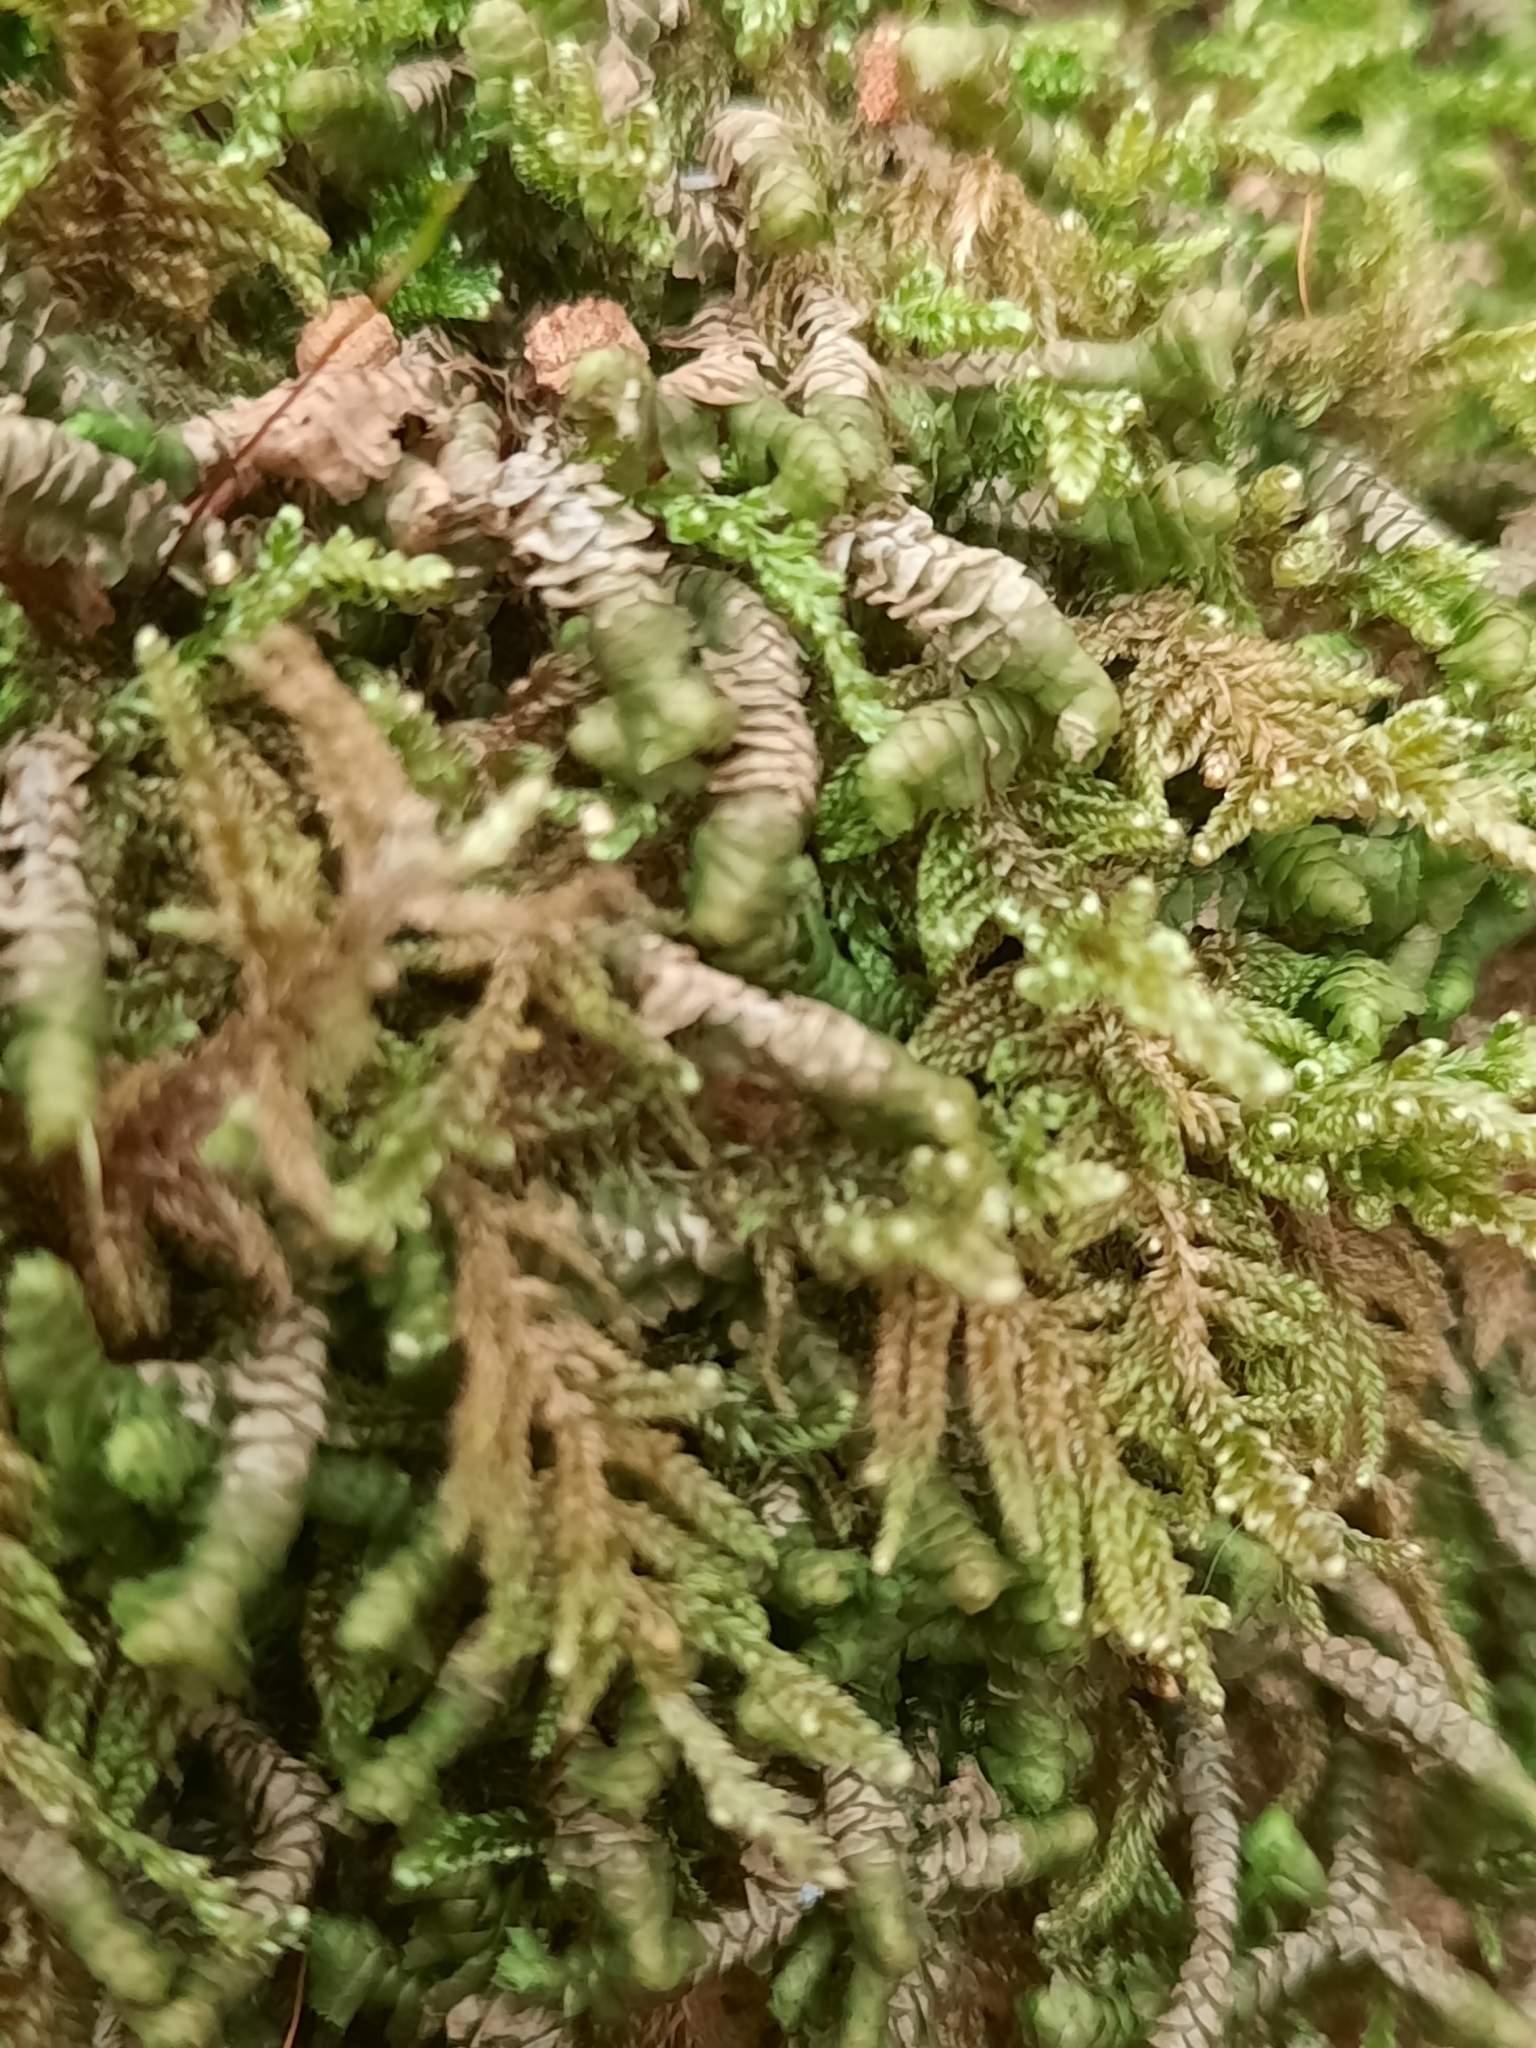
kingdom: Plantae
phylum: Marchantiophyta
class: Jungermanniopsida
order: Jungermanniales
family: Lepidoziaceae
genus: Bazzania
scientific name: Bazzania trilobata
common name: Three-lobed whipwort
